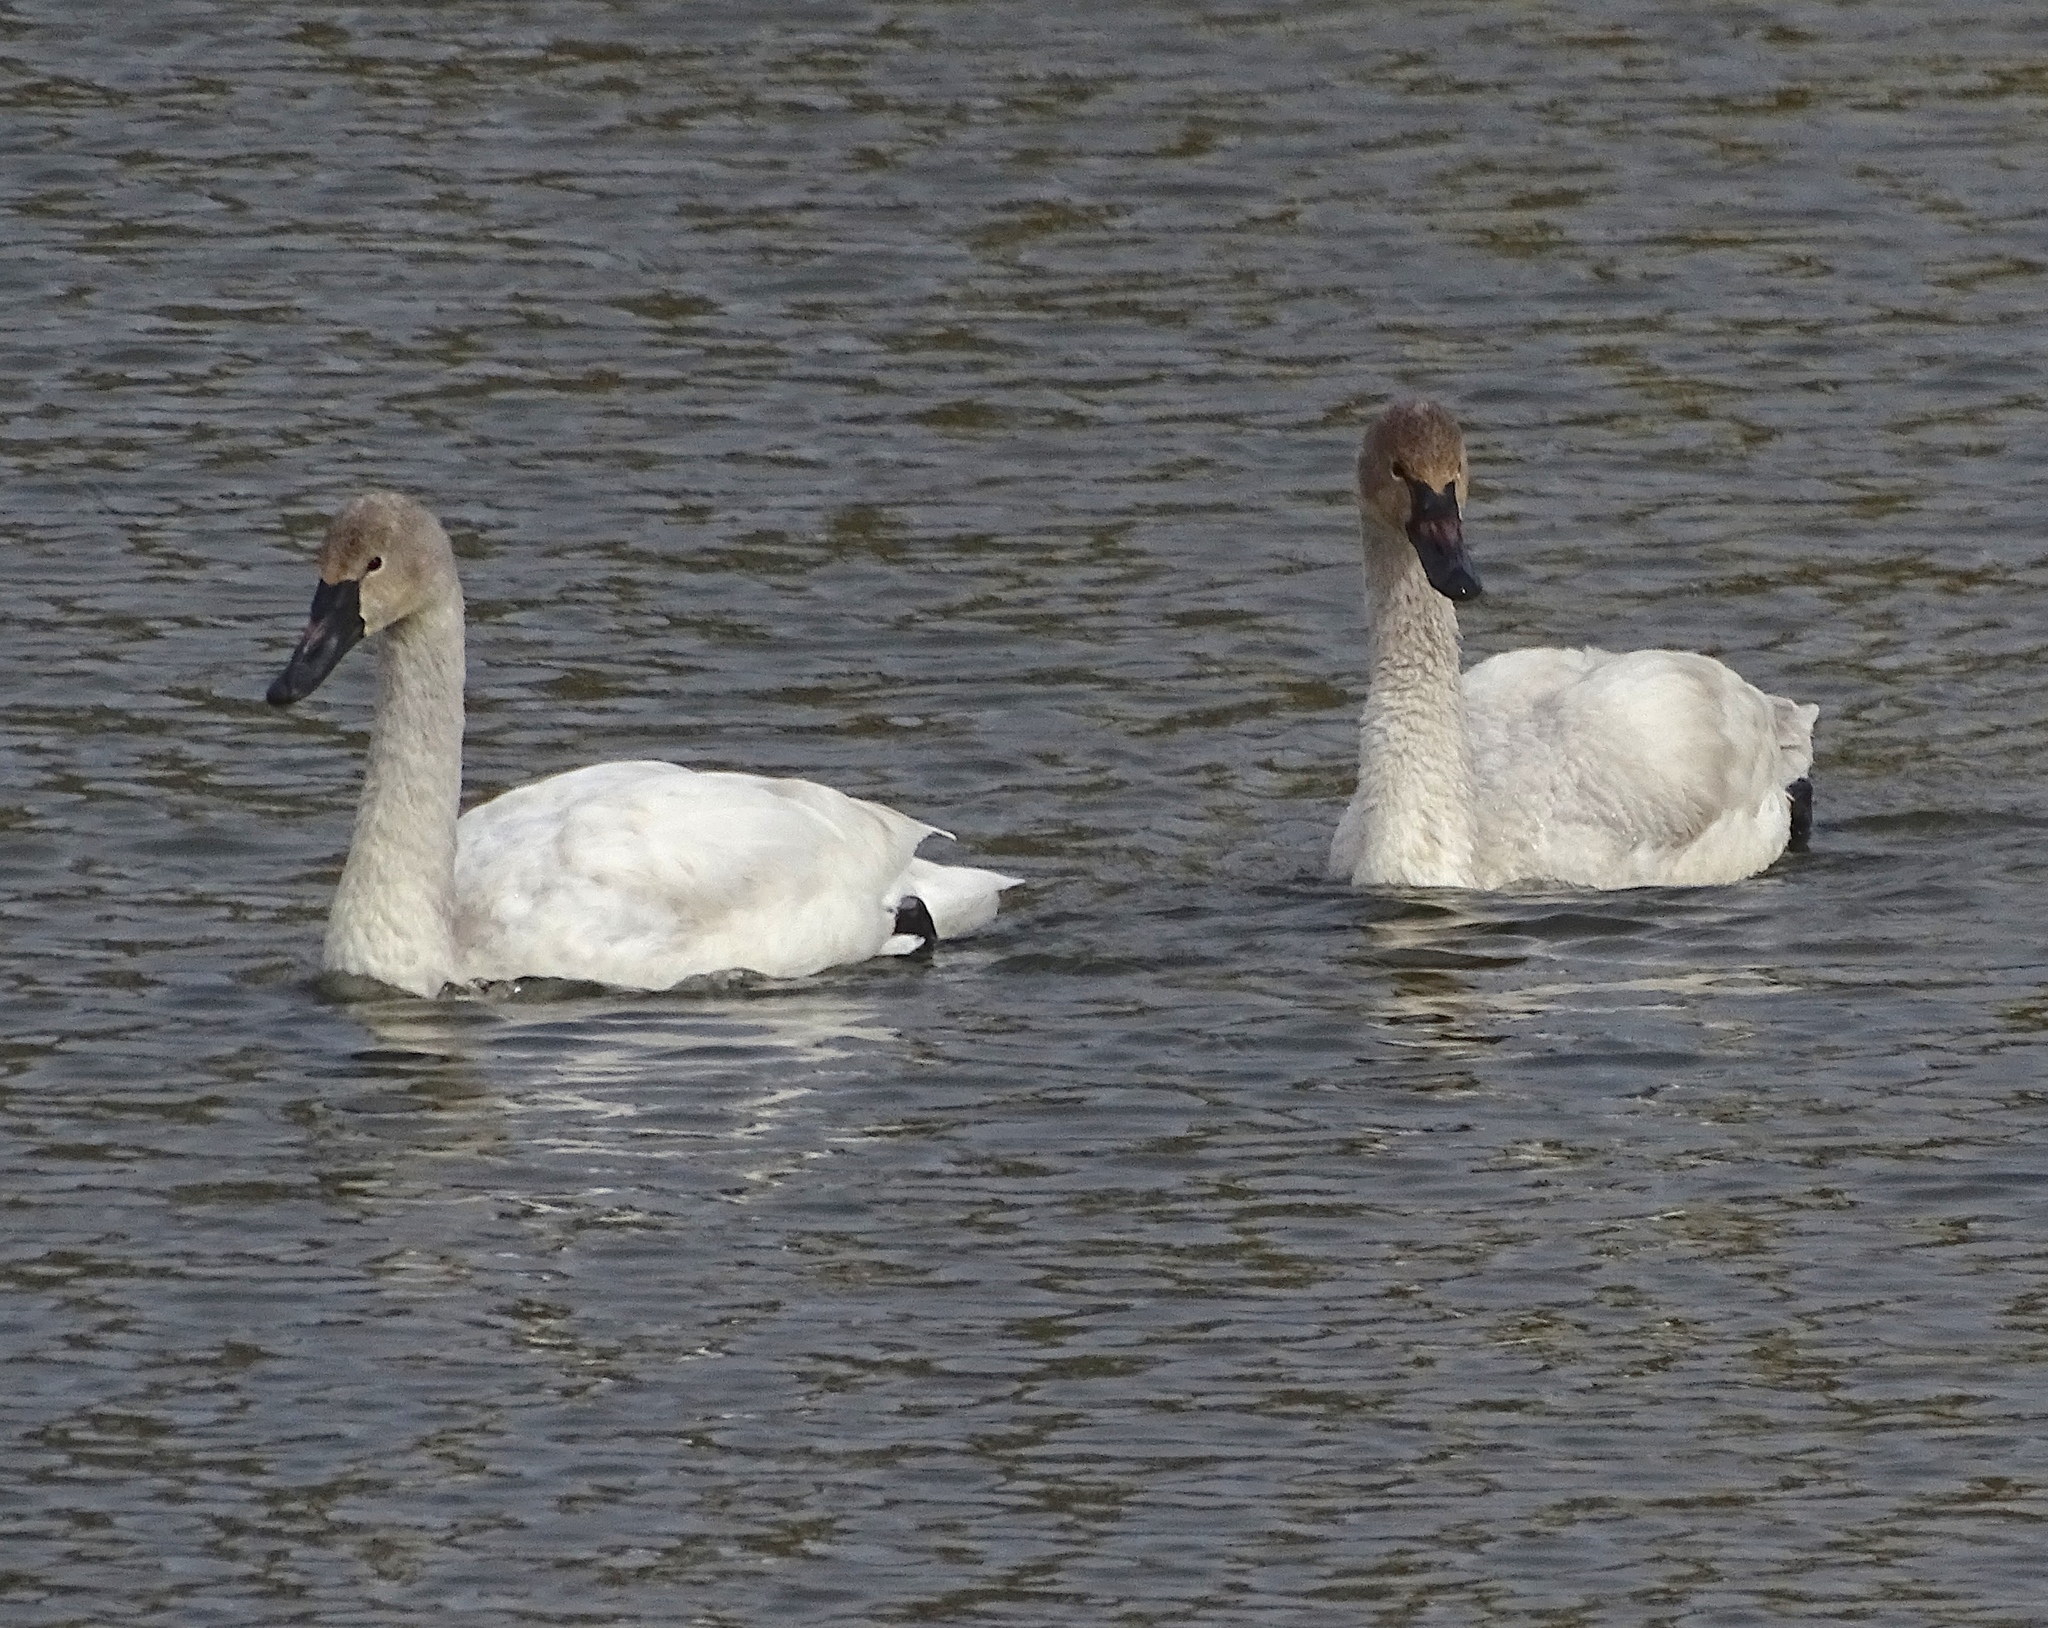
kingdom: Animalia
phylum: Chordata
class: Aves
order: Anseriformes
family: Anatidae
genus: Cygnus
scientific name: Cygnus columbianus
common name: Tundra swan
